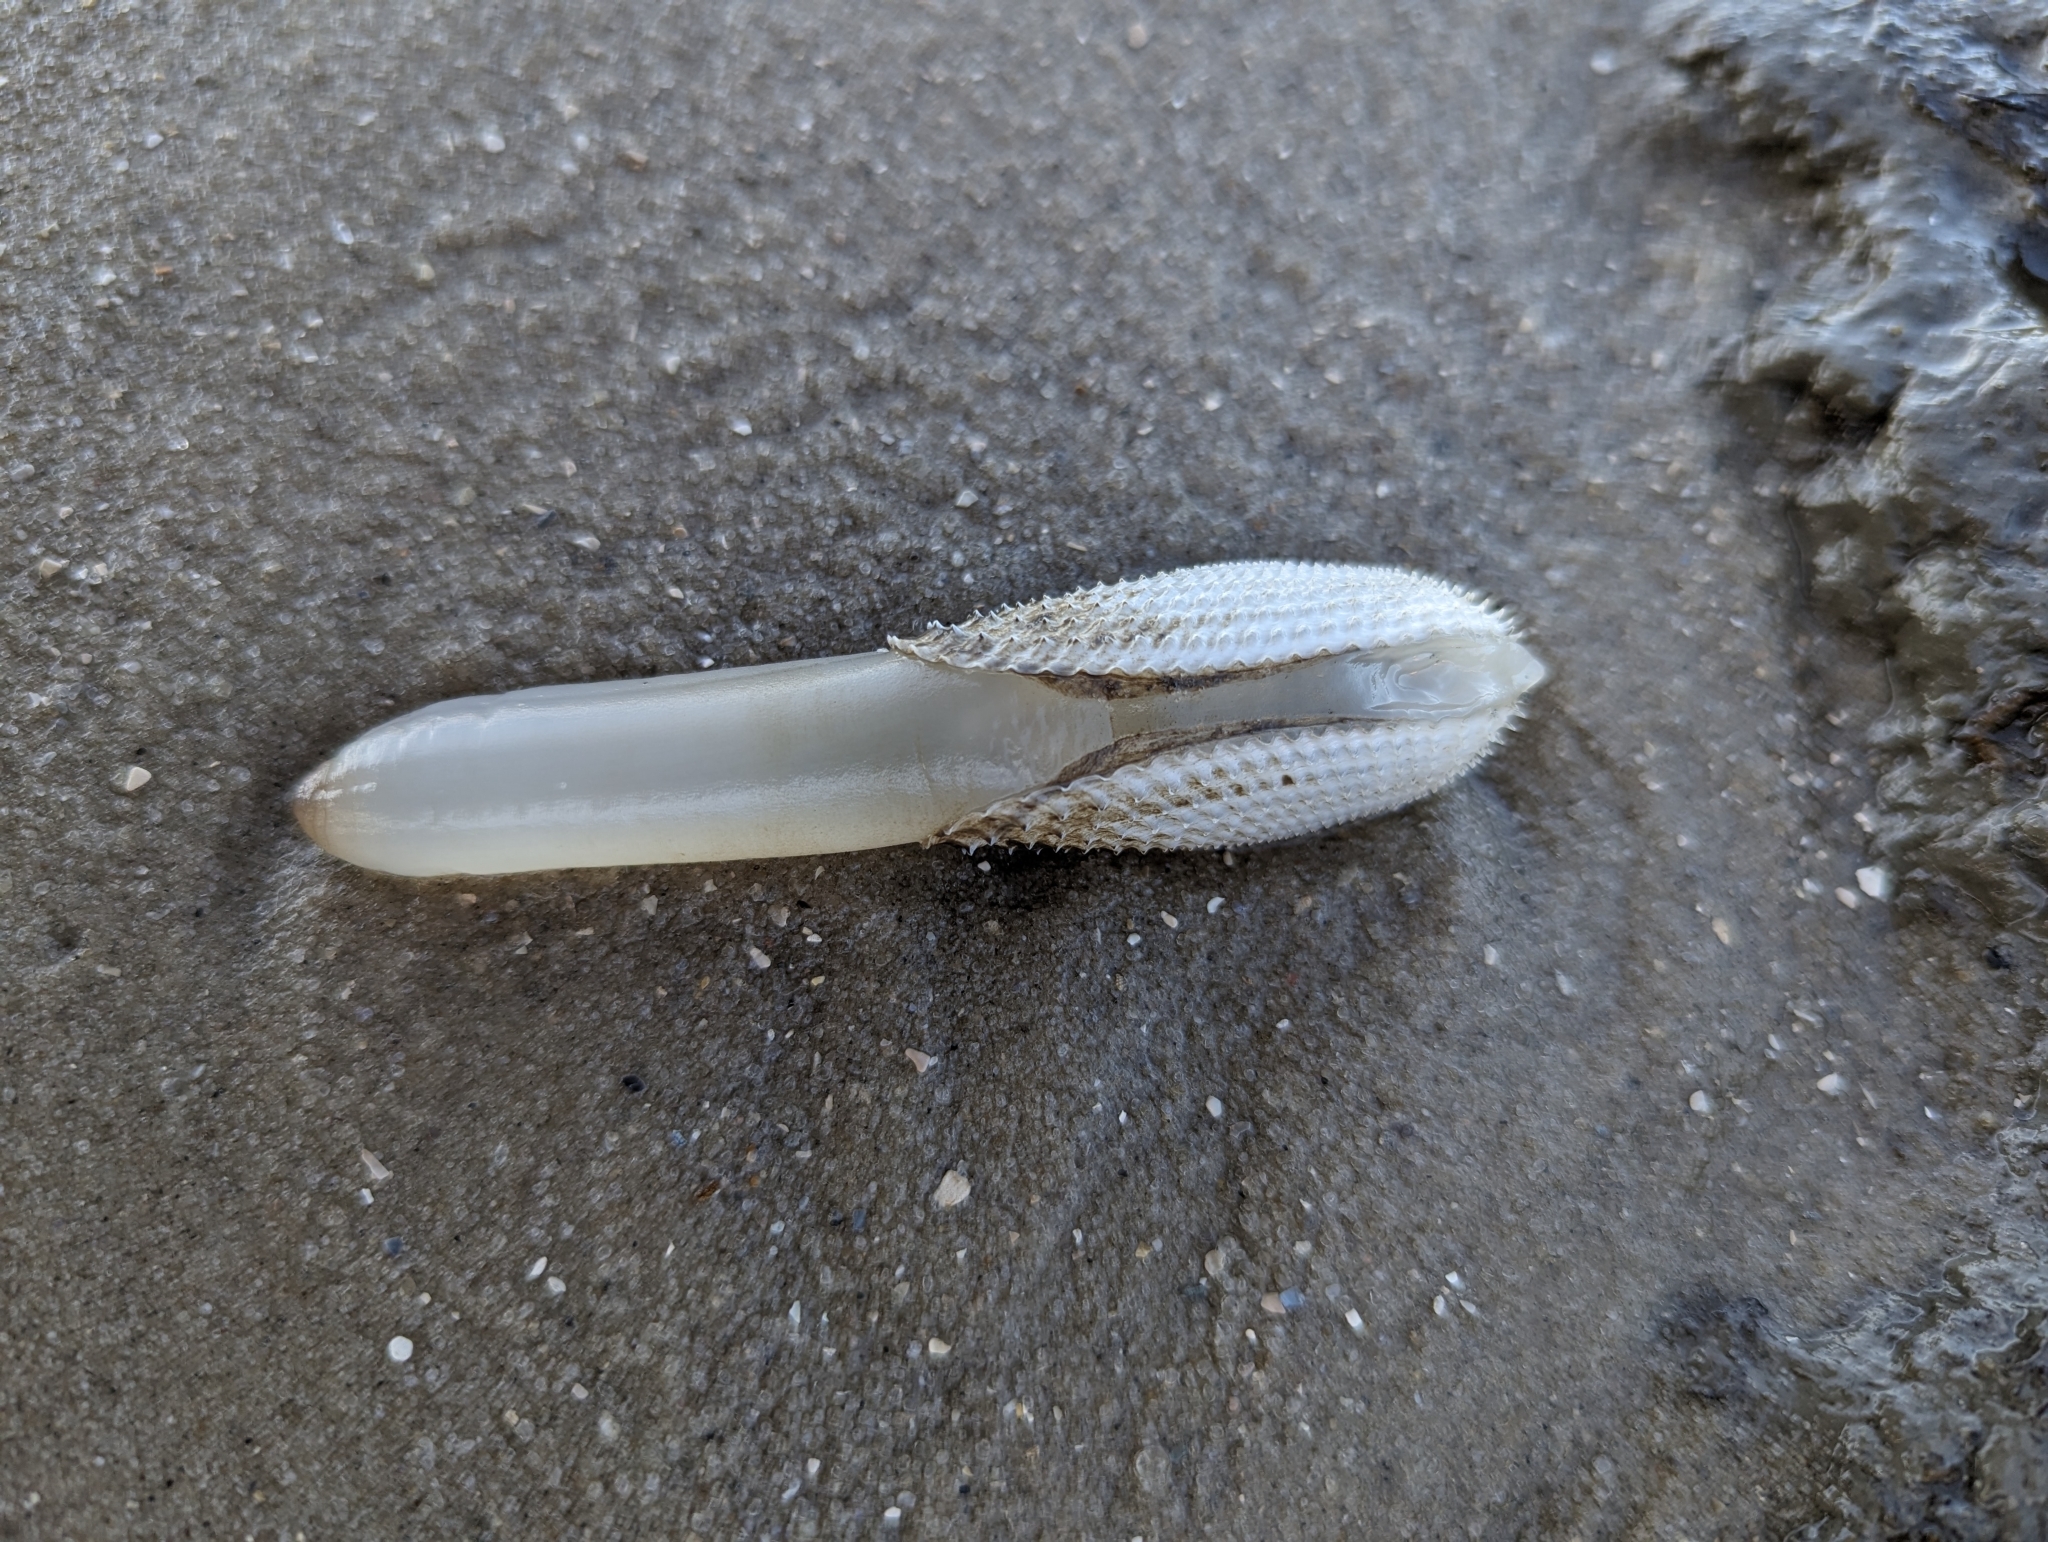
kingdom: Animalia
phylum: Mollusca
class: Bivalvia
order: Myida
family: Pholadidae
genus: Cyrtopleura
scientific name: Cyrtopleura costata
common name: Angel wing
